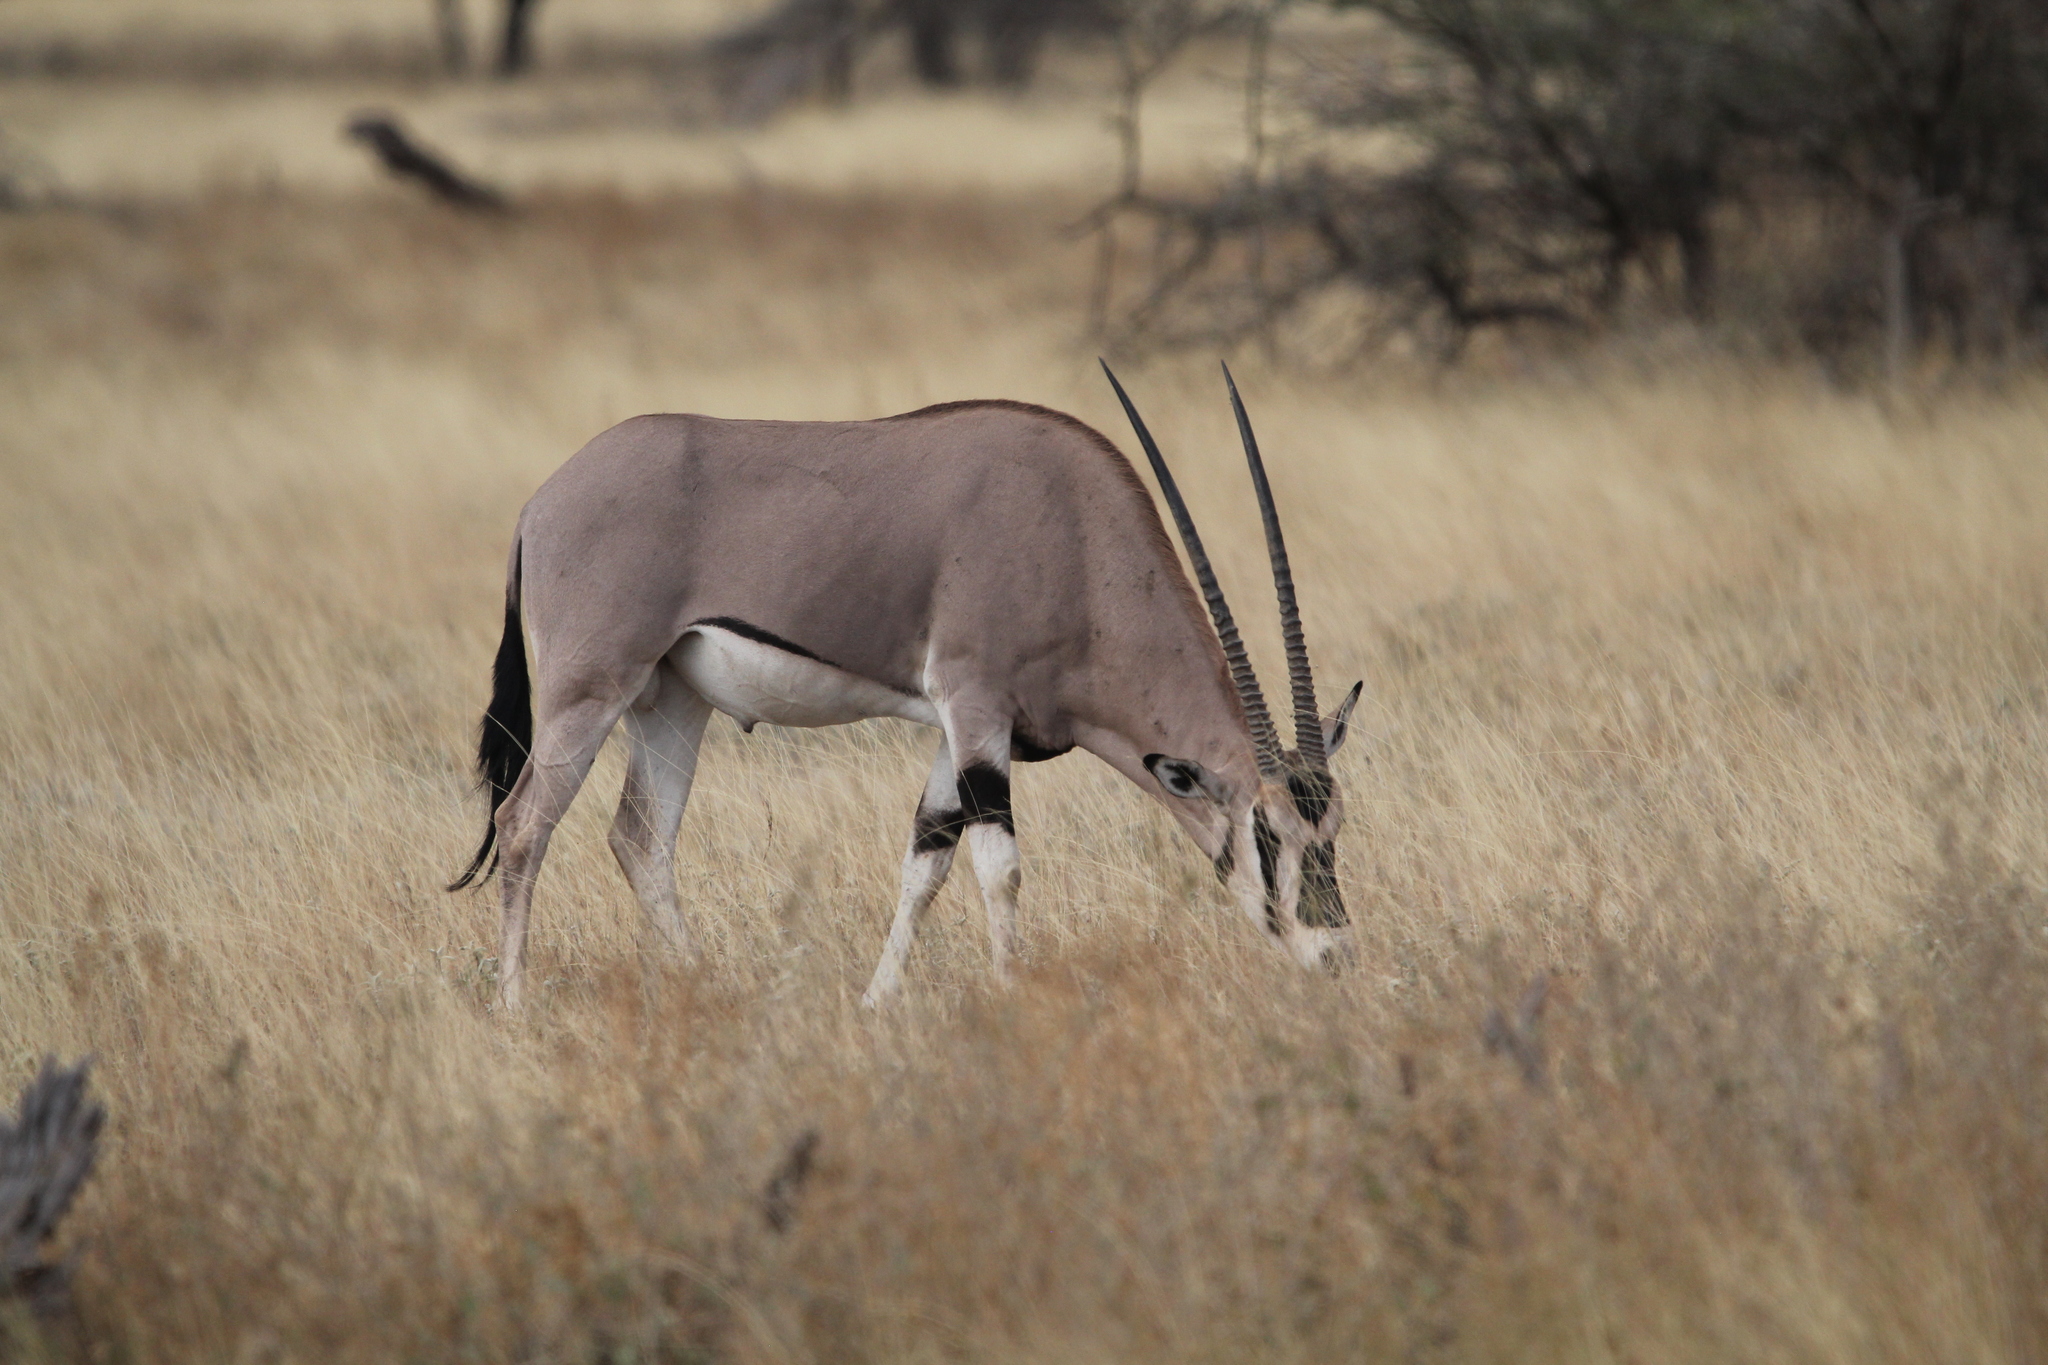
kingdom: Animalia
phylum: Chordata
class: Mammalia
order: Artiodactyla
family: Bovidae
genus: Oryx
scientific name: Oryx beisa
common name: Beisa
